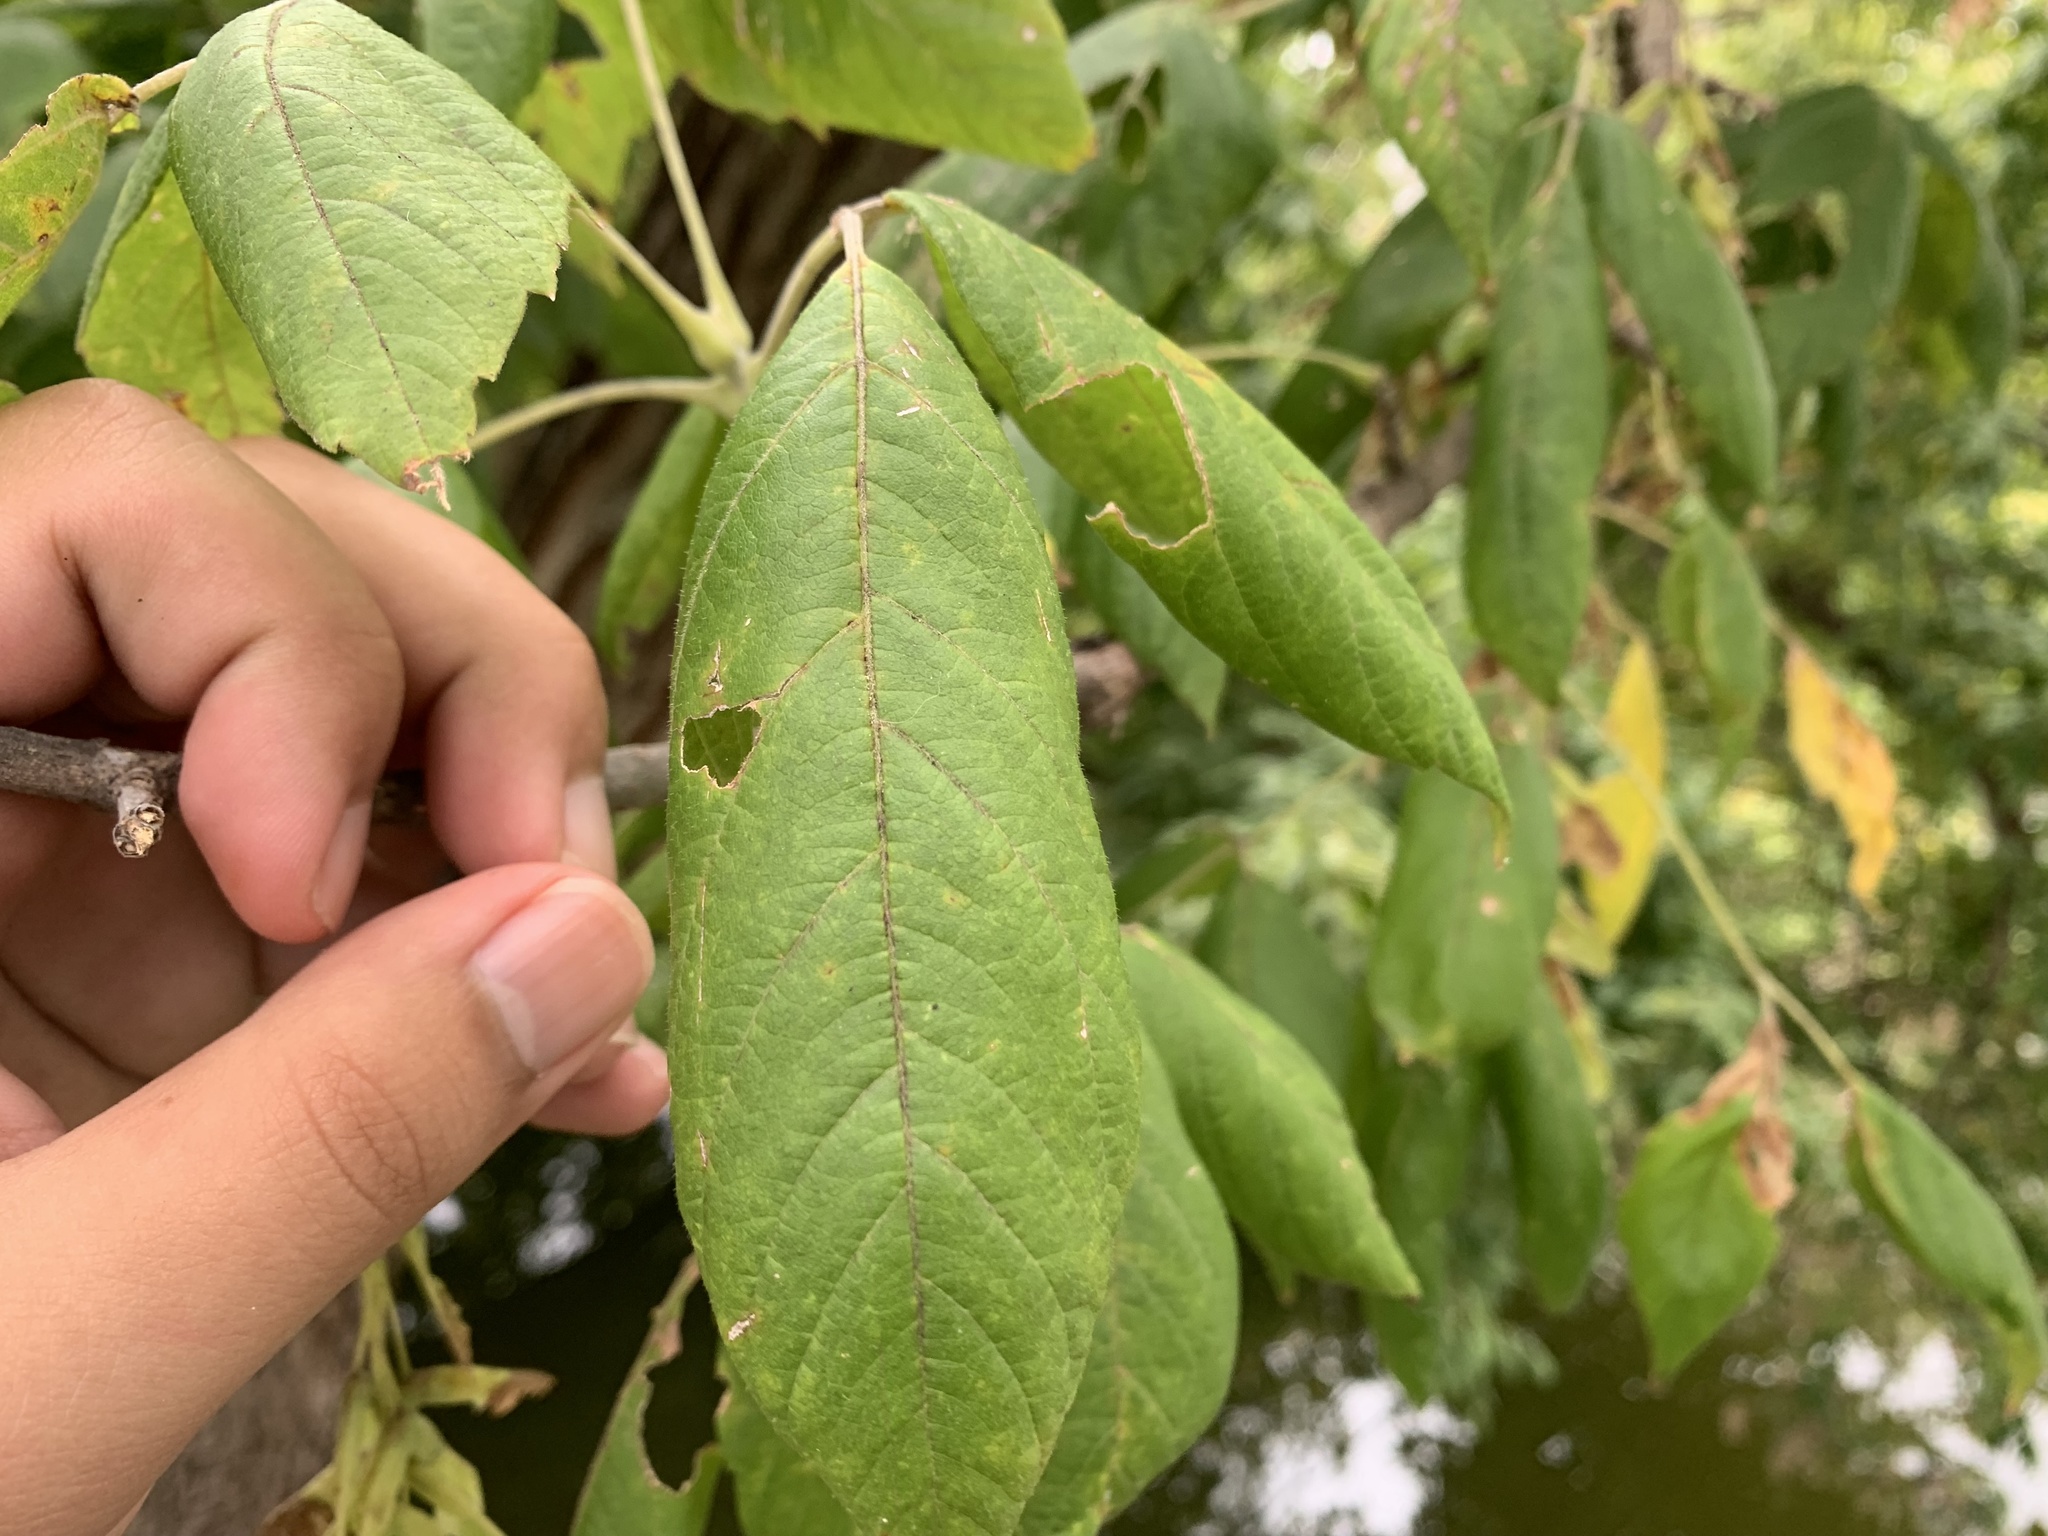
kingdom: Plantae
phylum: Tracheophyta
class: Magnoliopsida
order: Sapindales
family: Sapindaceae
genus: Acer
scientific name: Acer negundo
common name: Ashleaf maple
